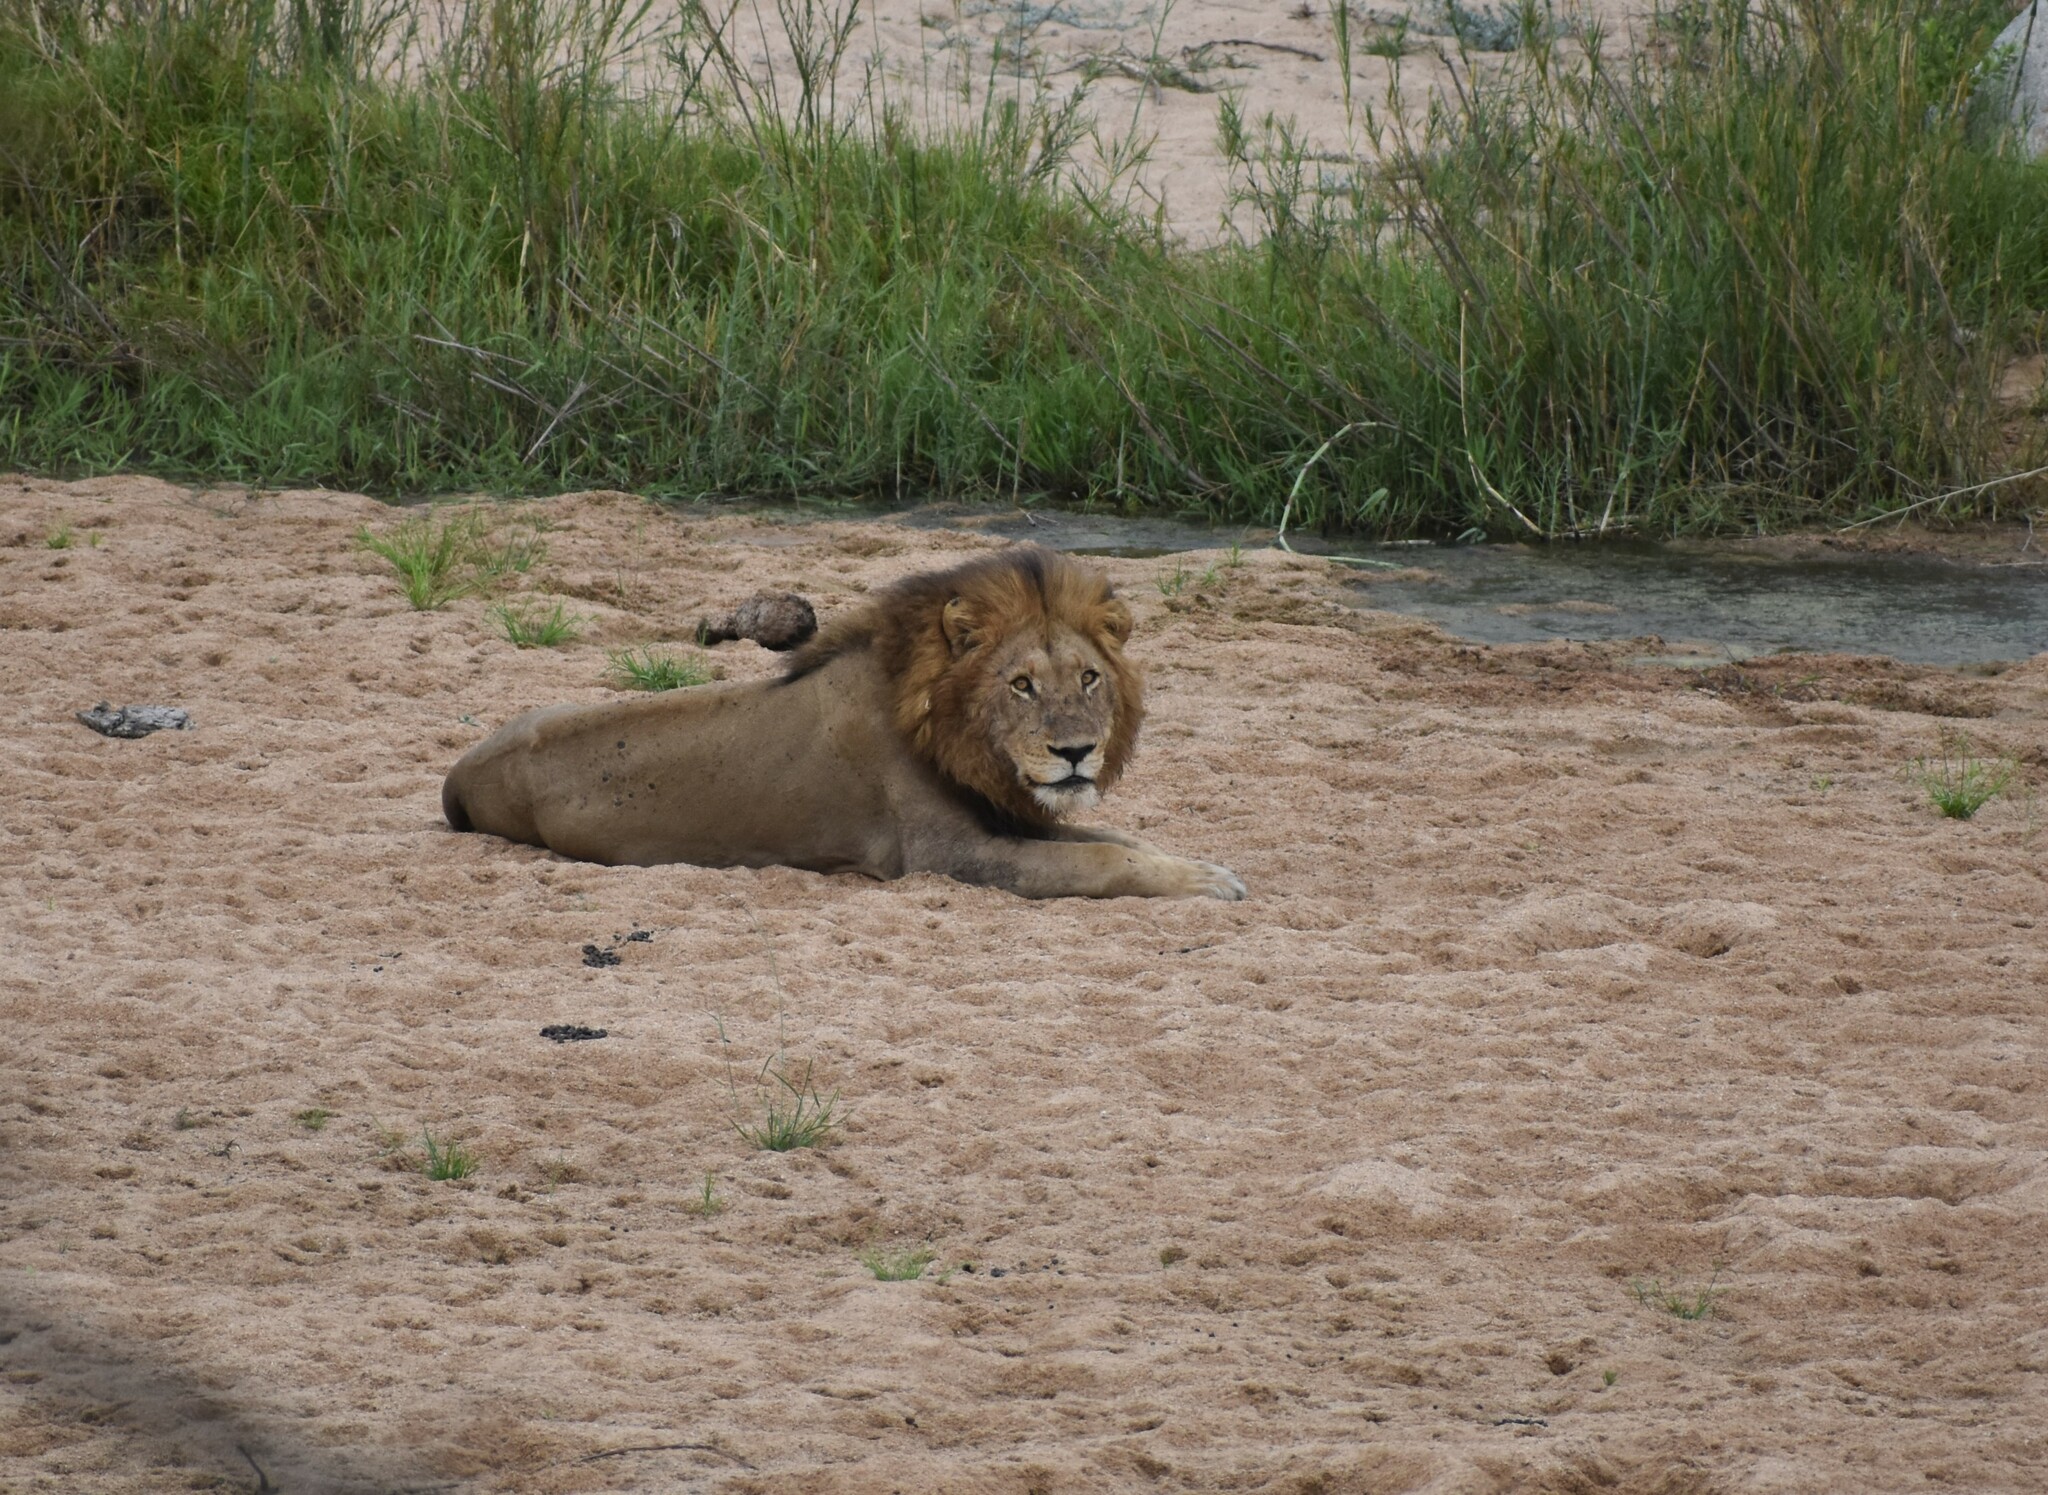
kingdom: Animalia
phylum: Chordata
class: Mammalia
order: Carnivora
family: Felidae
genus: Panthera
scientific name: Panthera leo
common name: Lion
